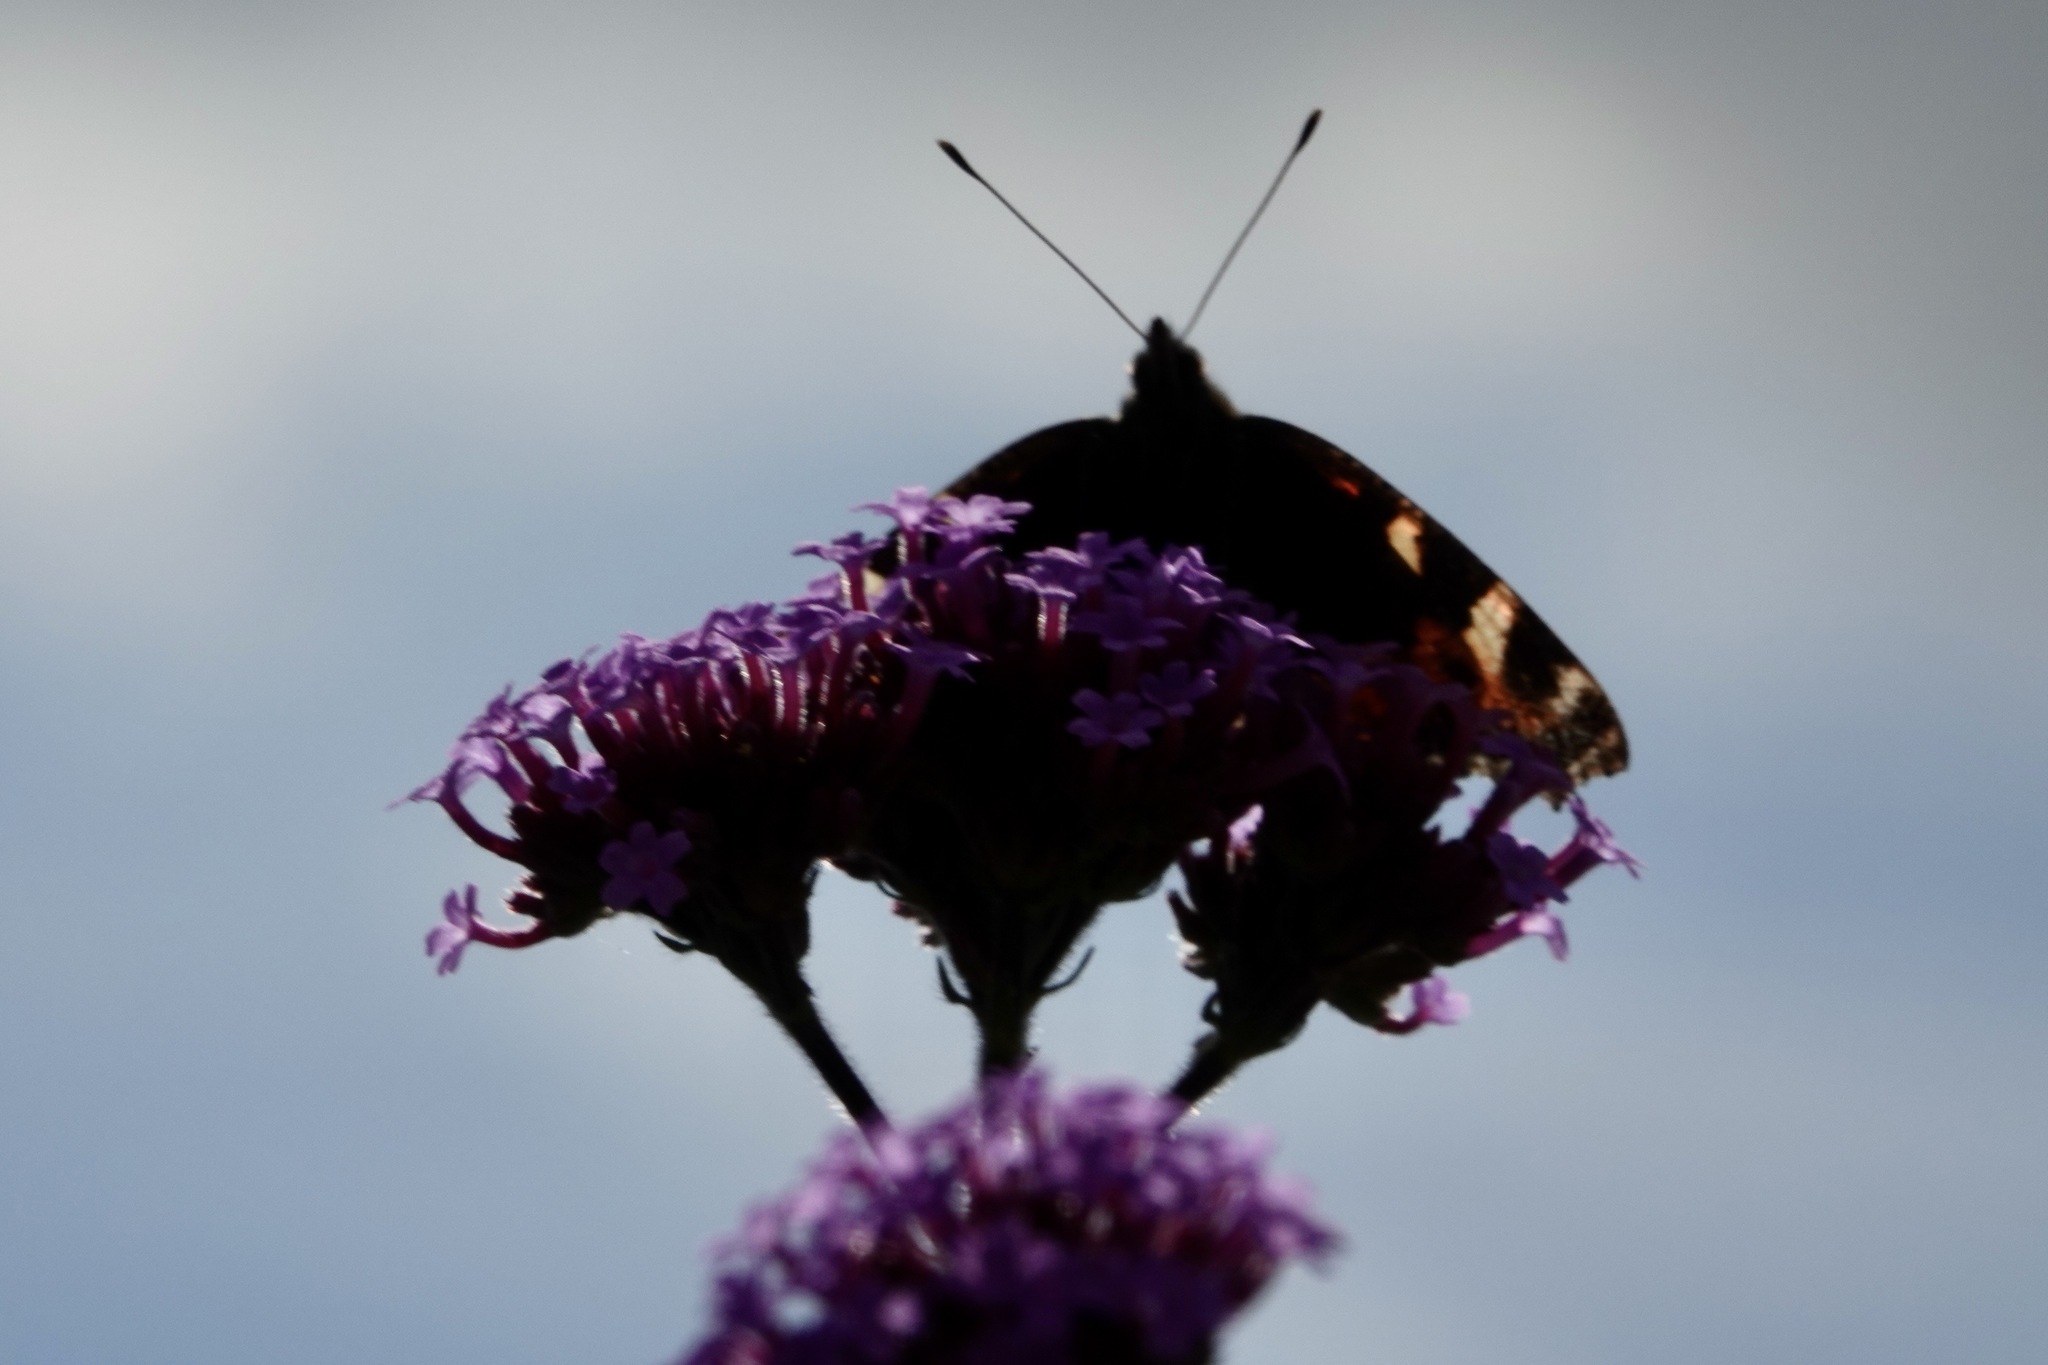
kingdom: Animalia
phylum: Arthropoda
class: Insecta
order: Lepidoptera
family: Nymphalidae
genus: Aglais
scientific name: Aglais urticae
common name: Small tortoiseshell
